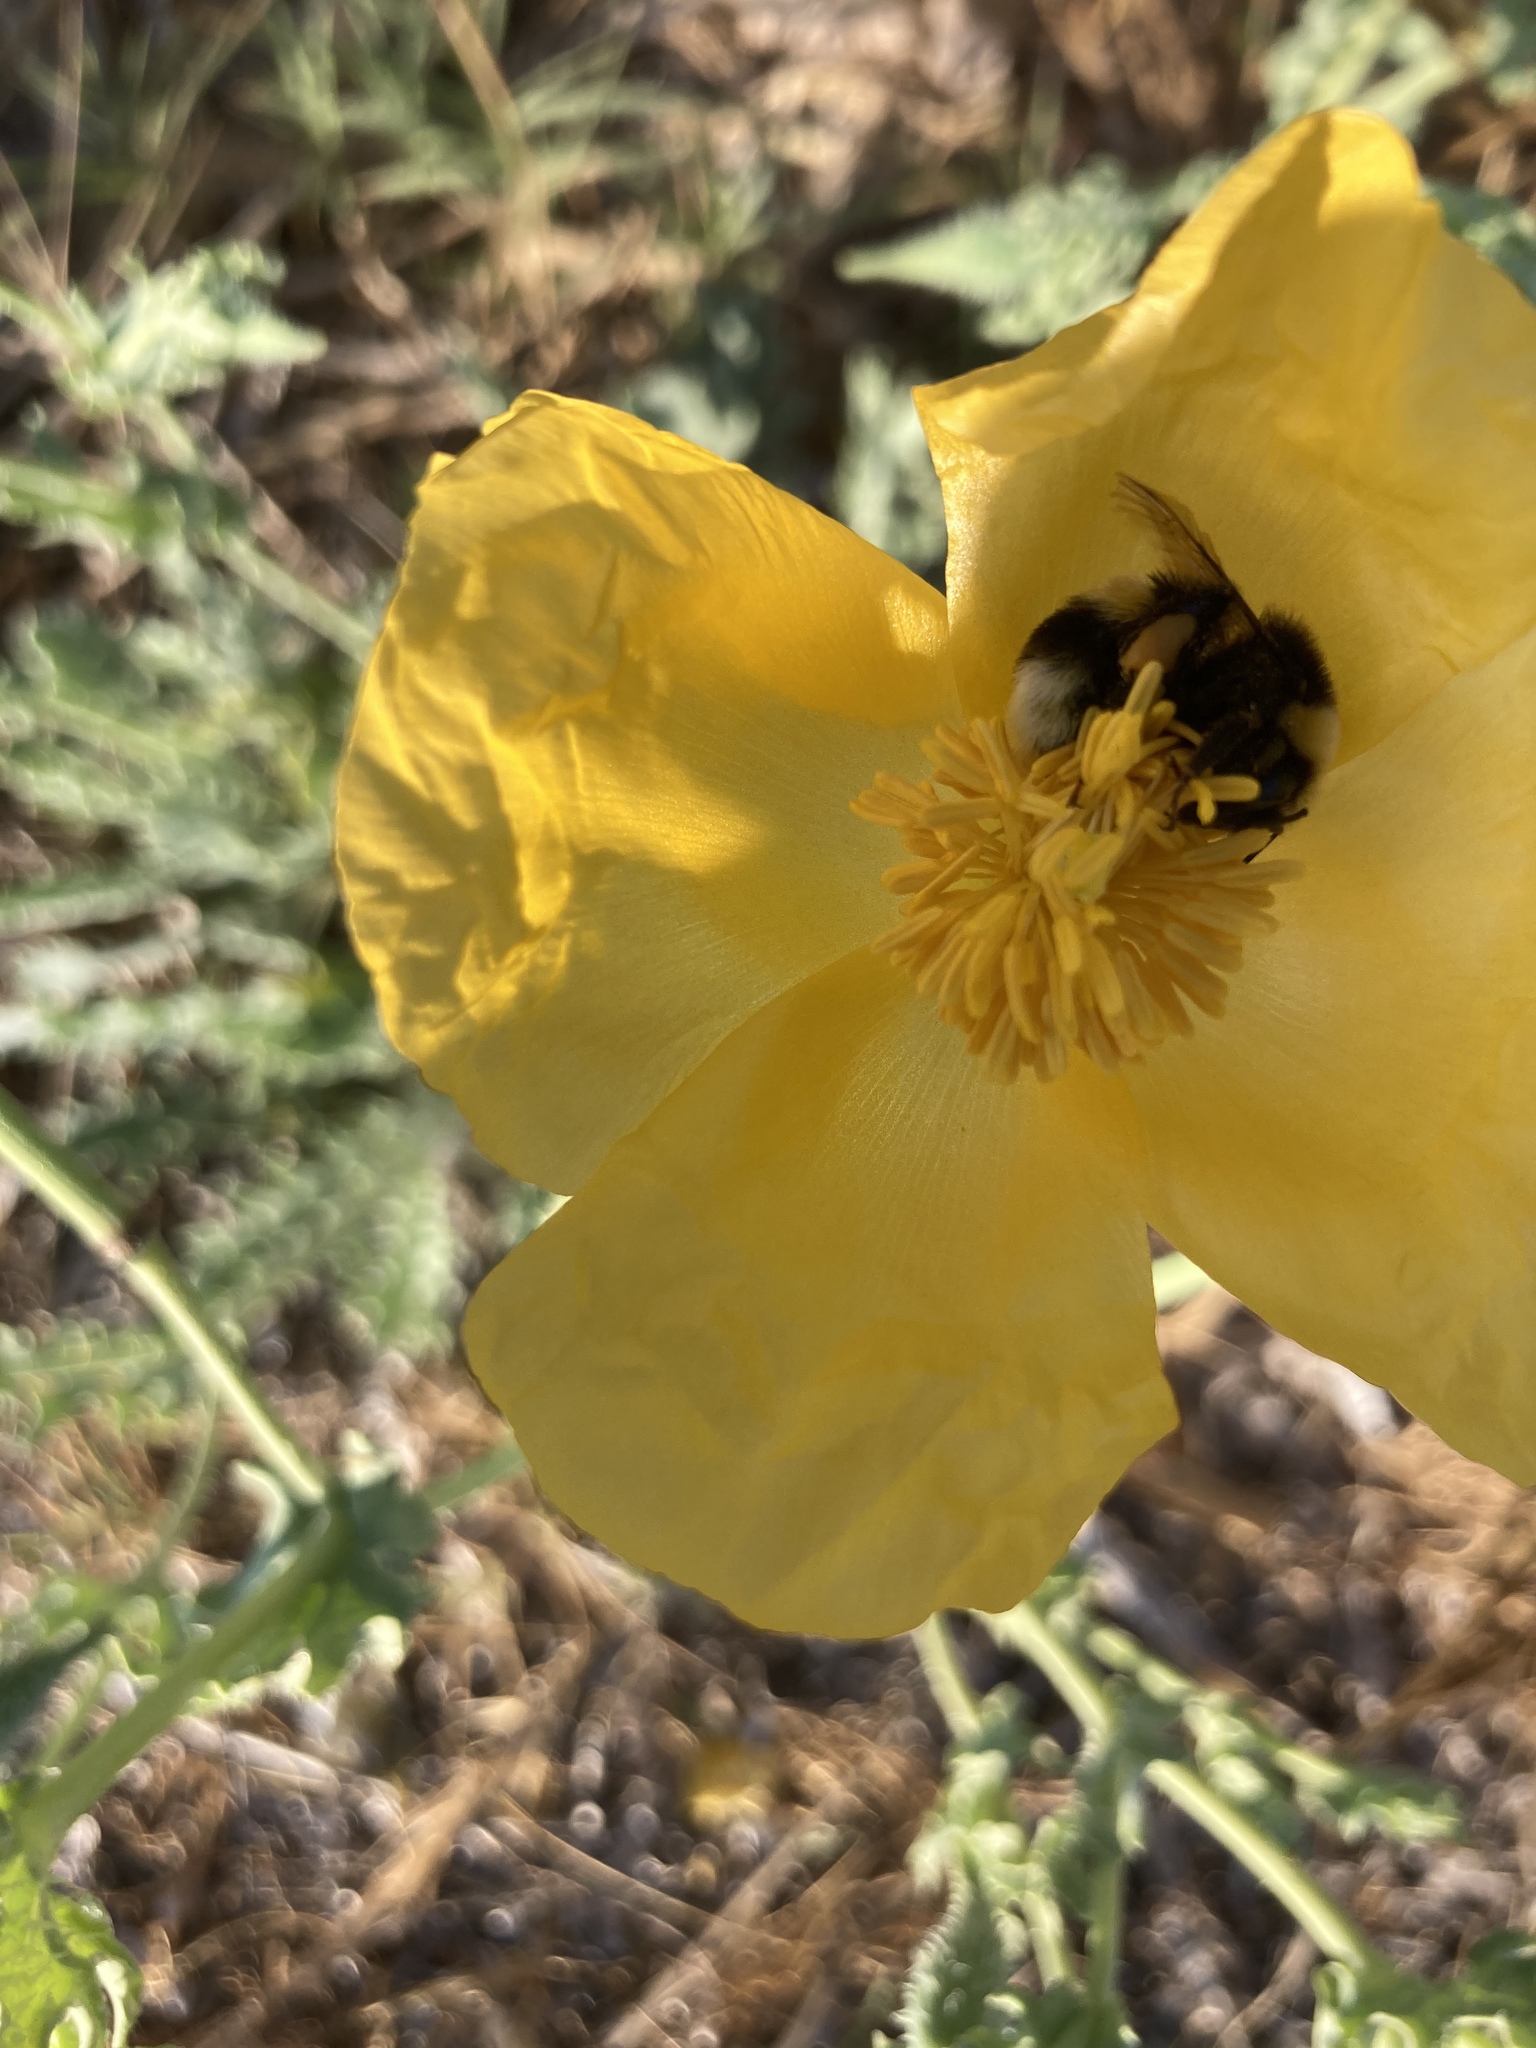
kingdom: Animalia
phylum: Arthropoda
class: Insecta
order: Hymenoptera
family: Apidae
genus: Bombus
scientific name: Bombus terrestris
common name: Buff-tailed bumblebee
